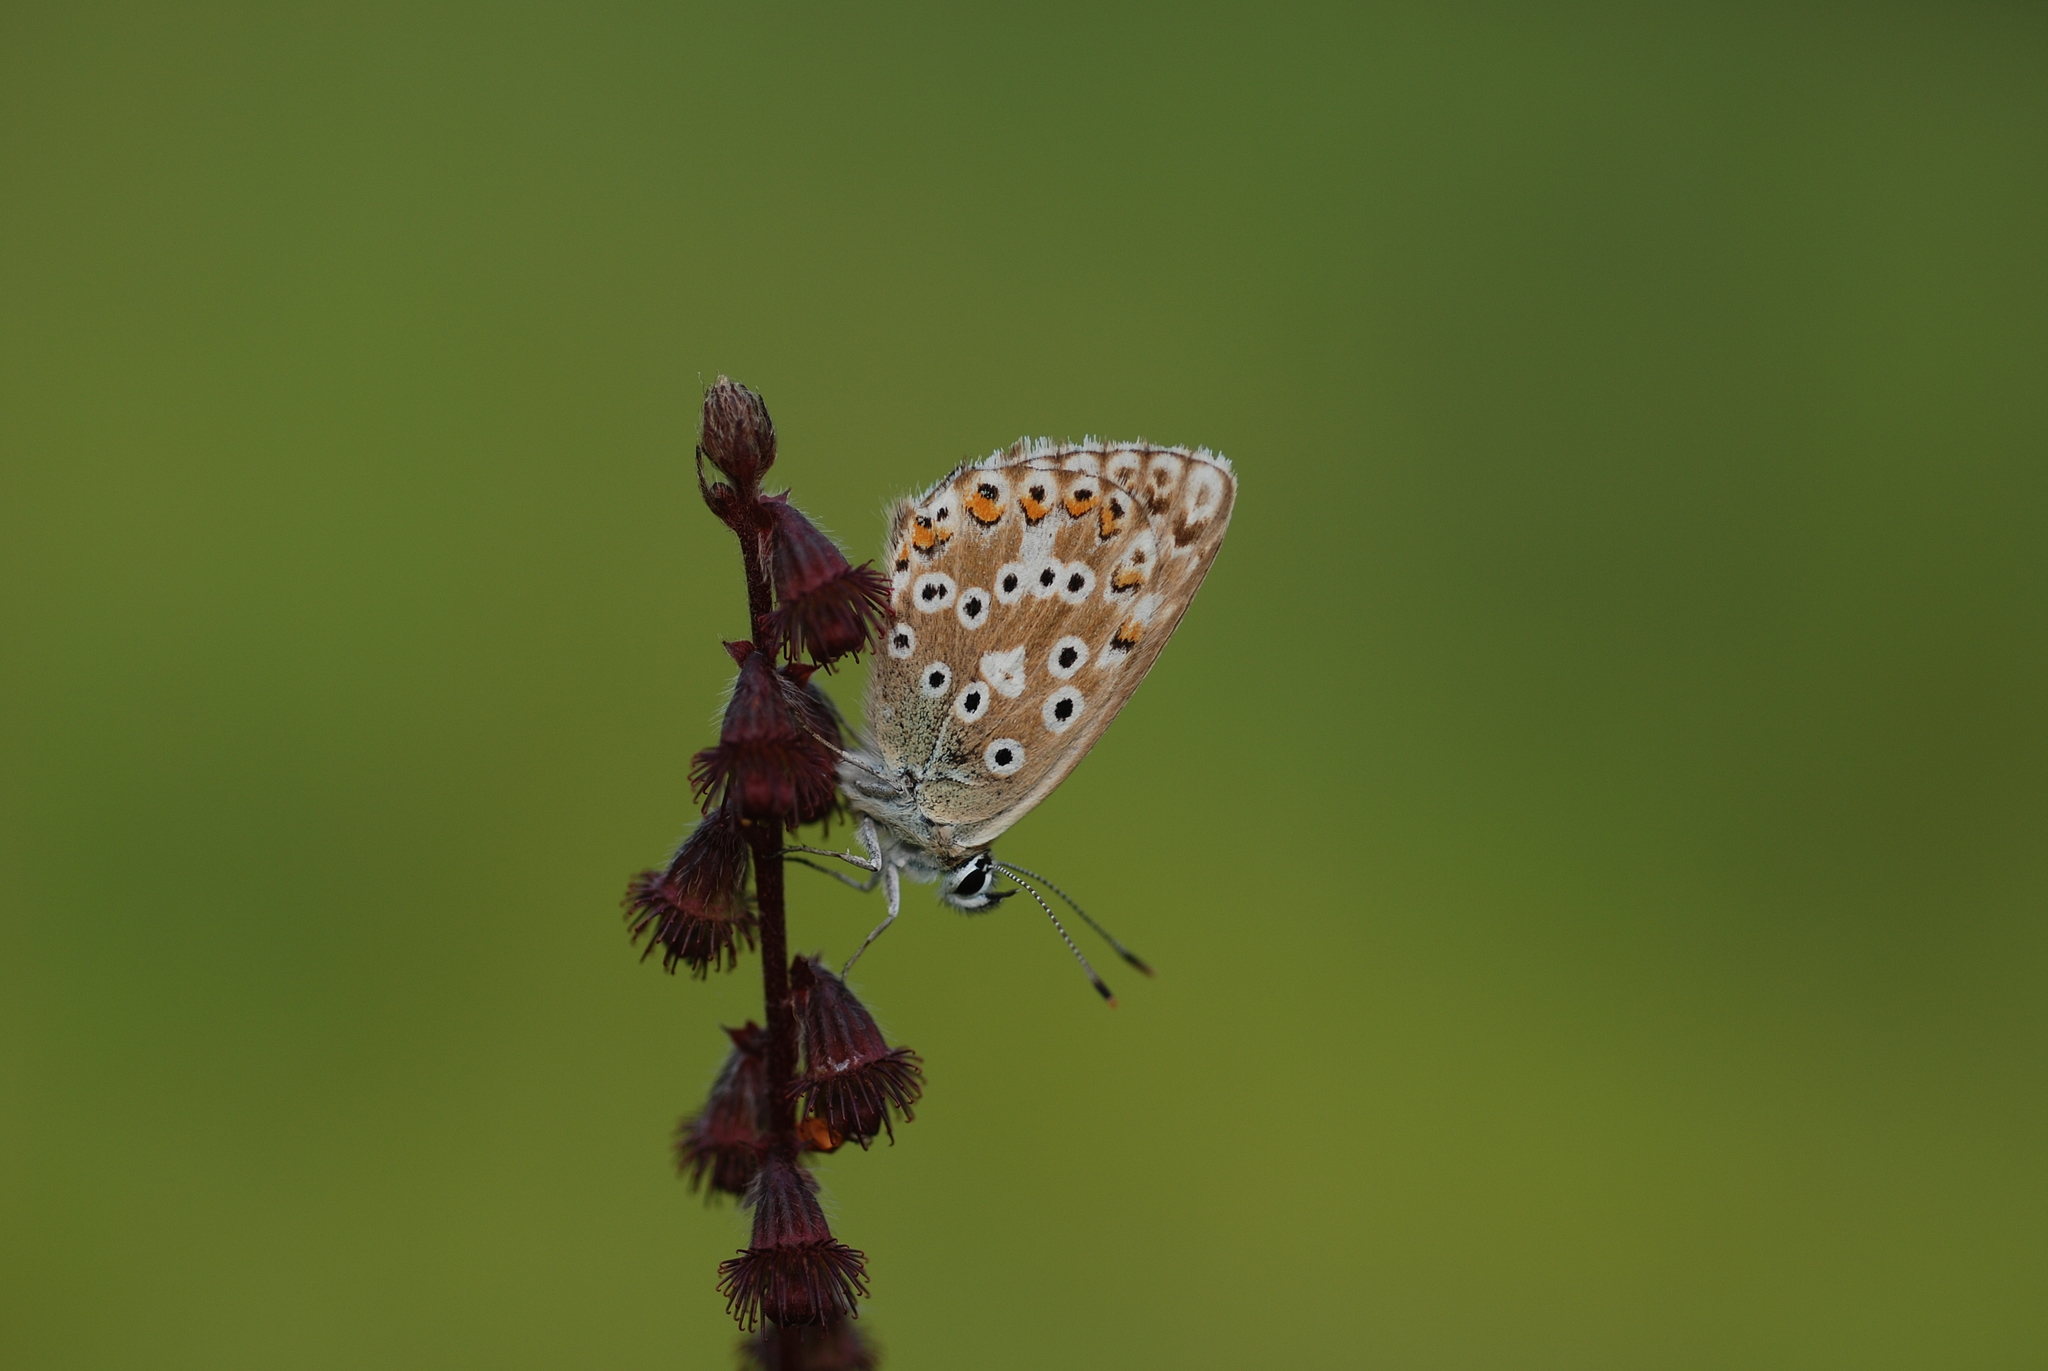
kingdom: Animalia
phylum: Arthropoda
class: Insecta
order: Lepidoptera
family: Lycaenidae
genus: Lysandra
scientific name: Lysandra coridon
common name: Chalkhill blue
